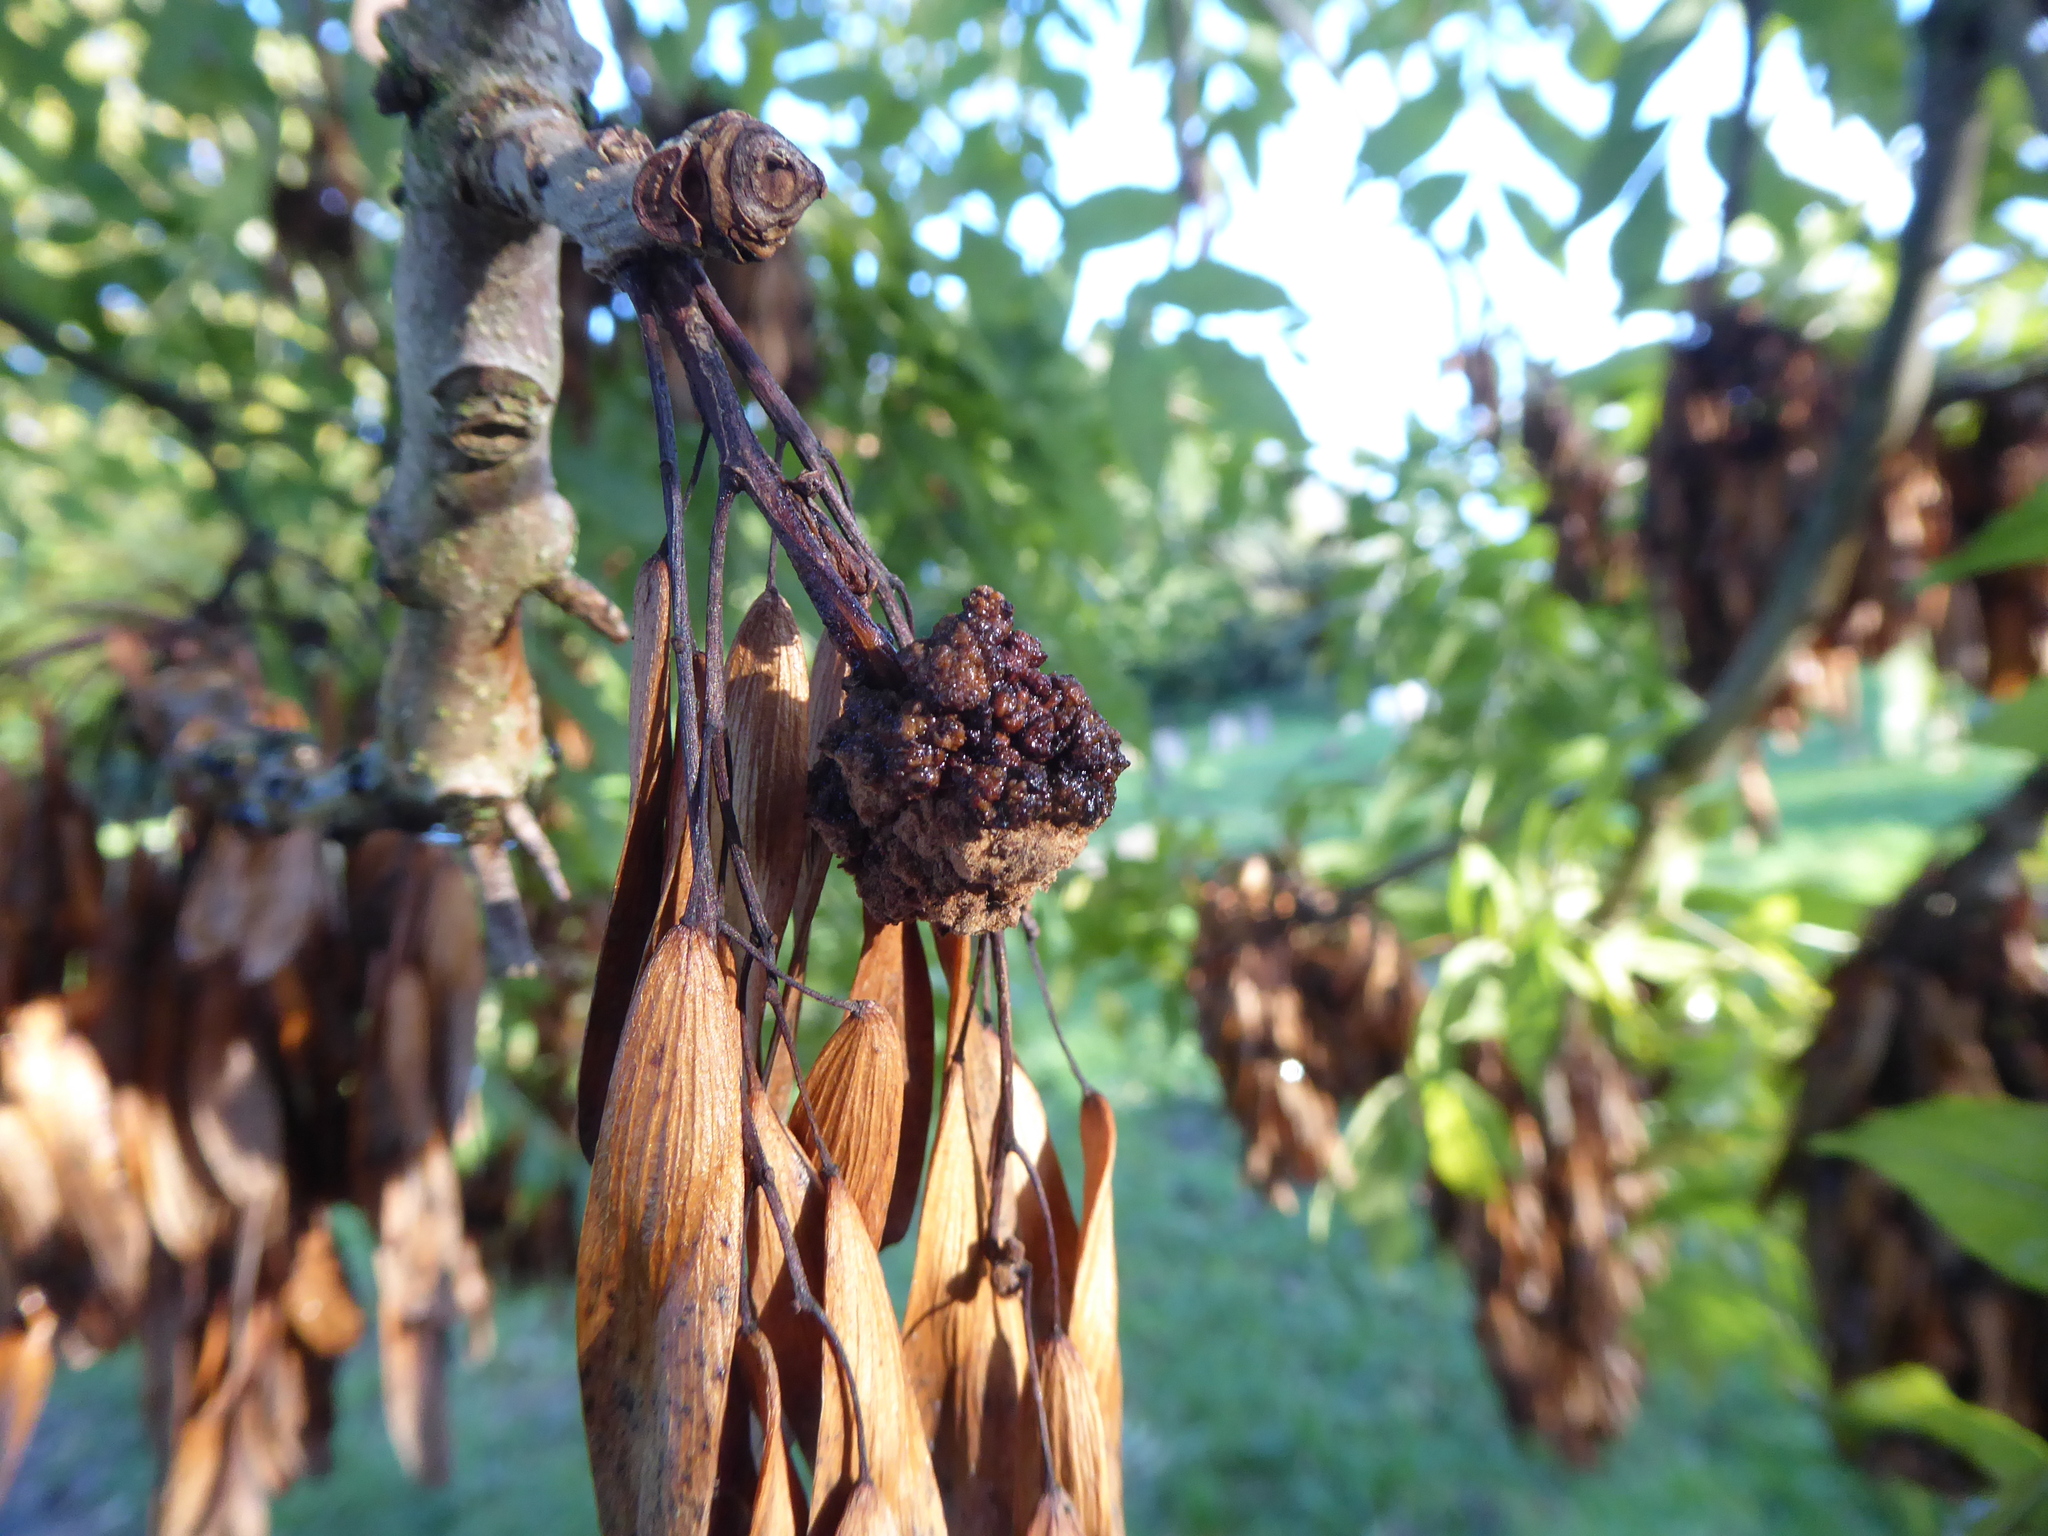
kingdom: Animalia
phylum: Arthropoda
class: Arachnida
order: Trombidiformes
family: Eriophyidae
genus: Aceria
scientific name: Aceria fraxinivora
